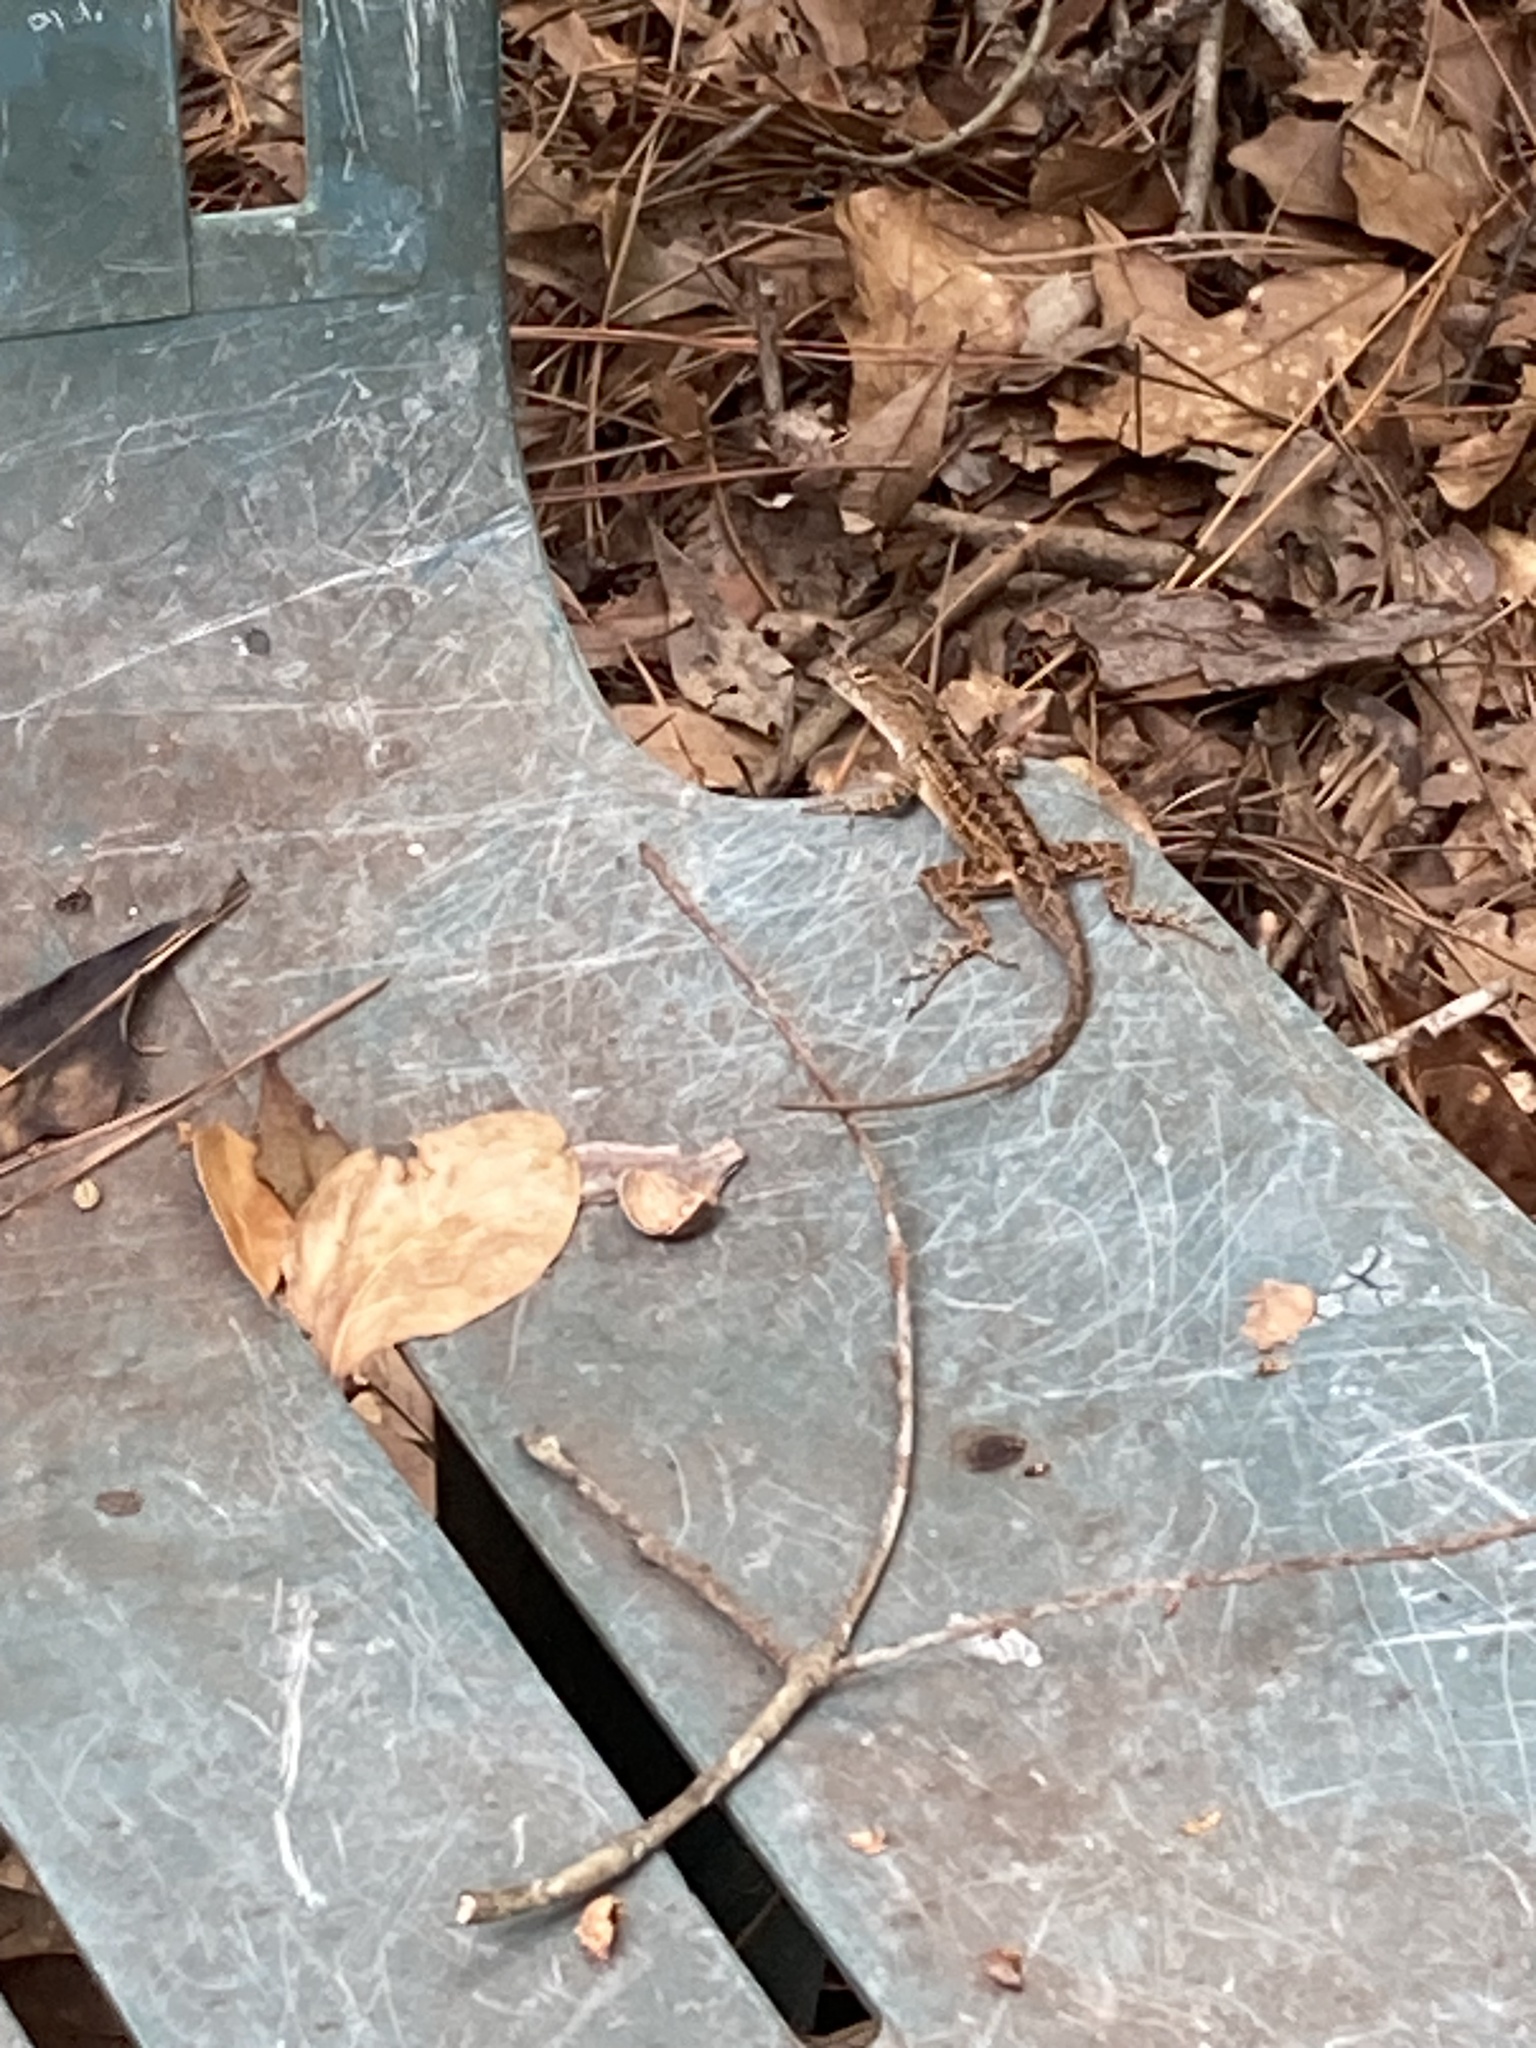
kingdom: Animalia
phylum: Chordata
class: Squamata
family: Dactyloidae
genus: Anolis
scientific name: Anolis sagrei
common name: Brown anole
